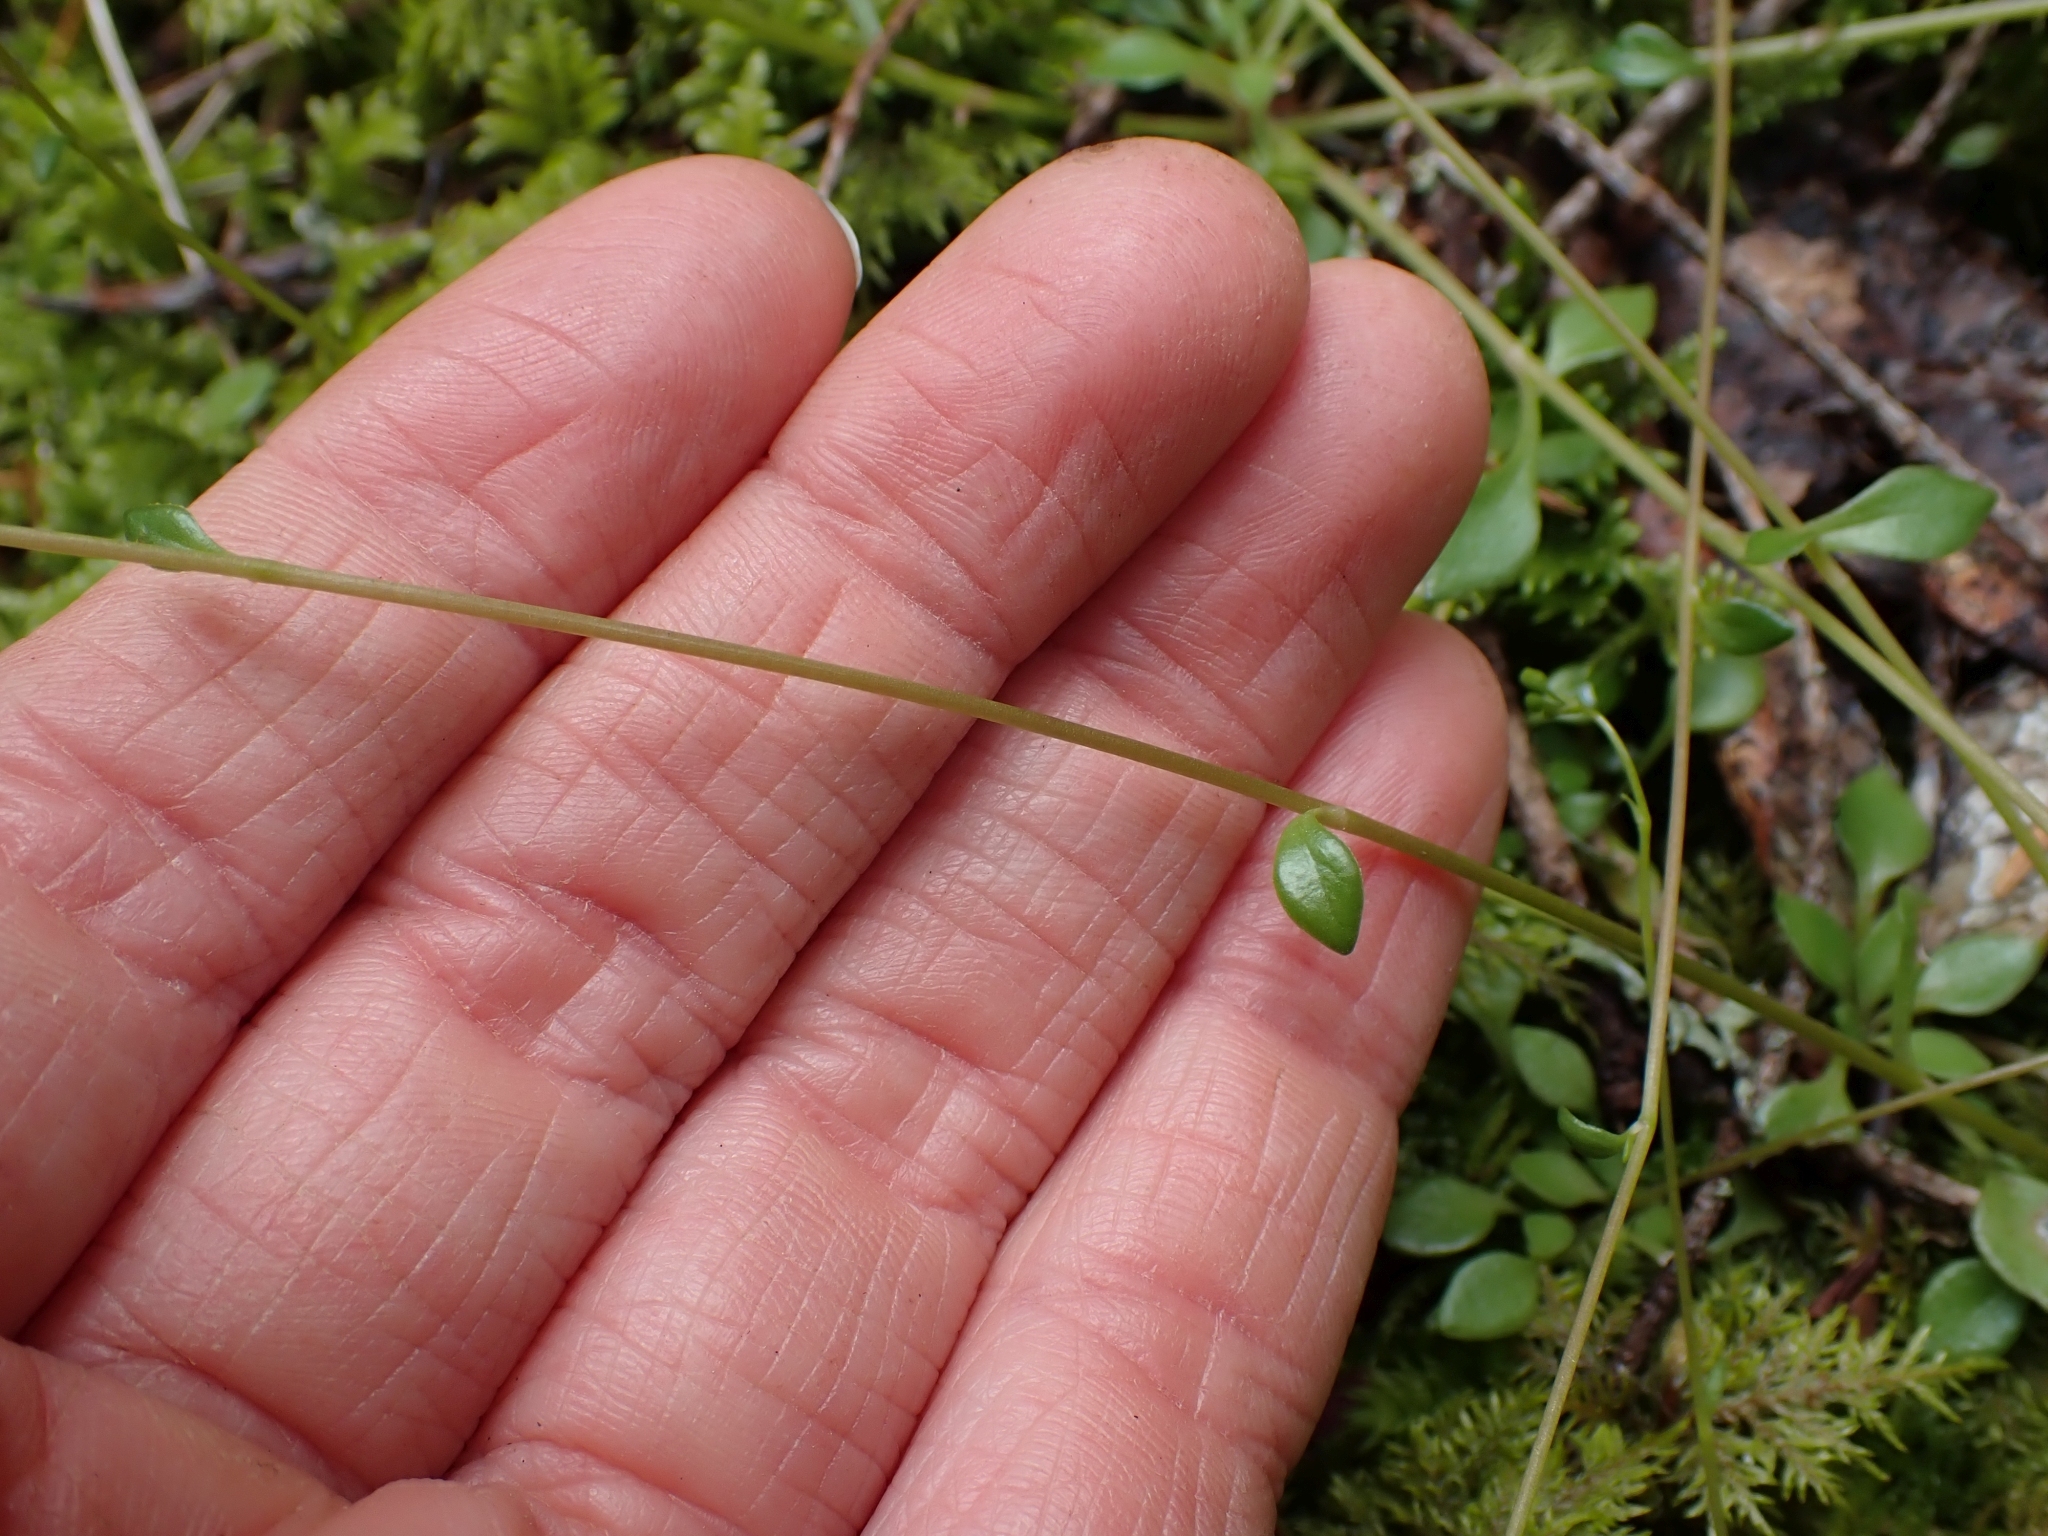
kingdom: Plantae
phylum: Tracheophyta
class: Magnoliopsida
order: Caryophyllales
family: Montiaceae
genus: Montia
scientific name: Montia parvifolia
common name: Small-leaved blinks
